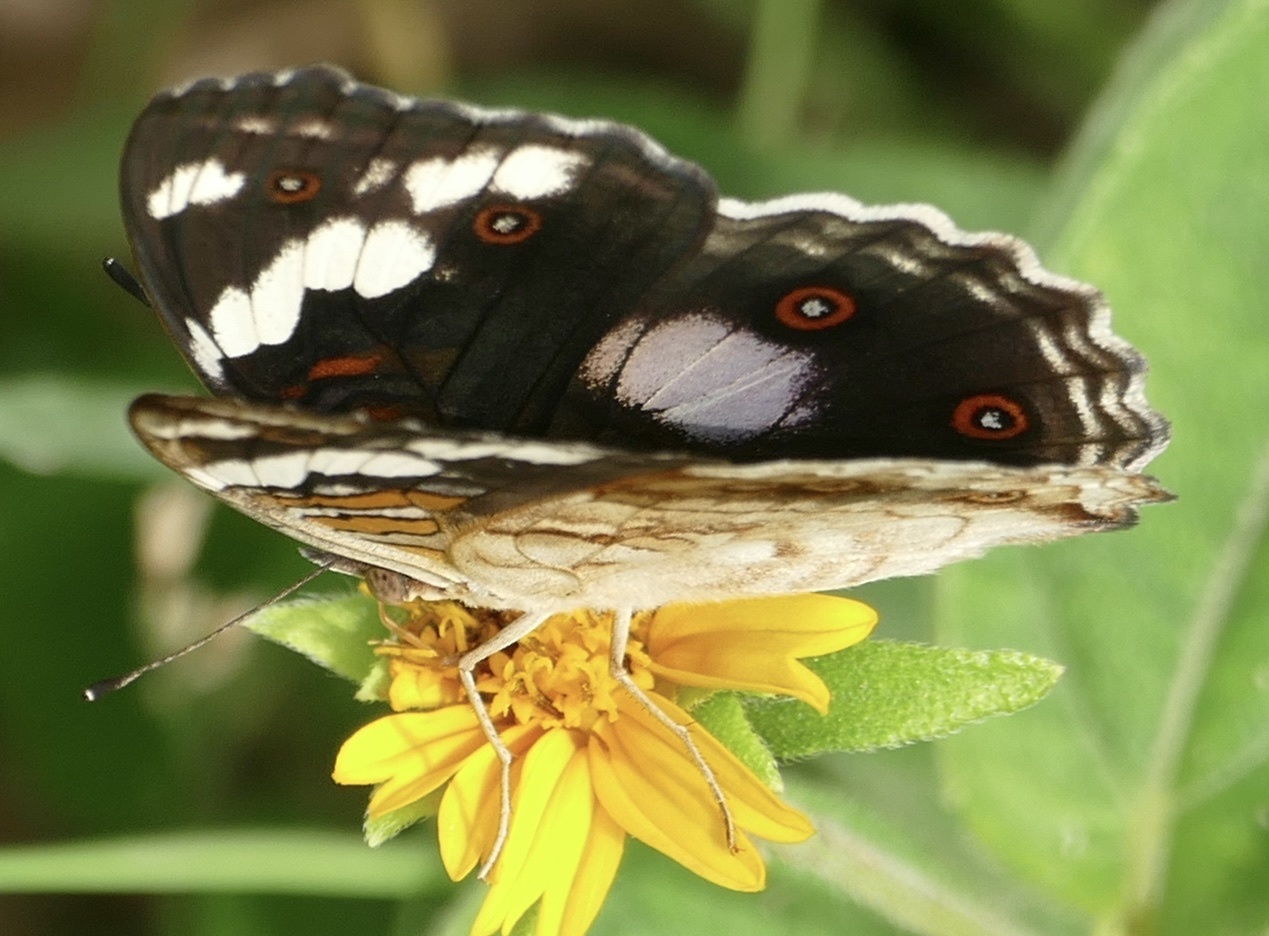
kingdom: Animalia
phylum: Arthropoda
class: Insecta
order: Lepidoptera
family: Nymphalidae
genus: Junonia
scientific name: Junonia oenone
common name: Dark blue pansy
